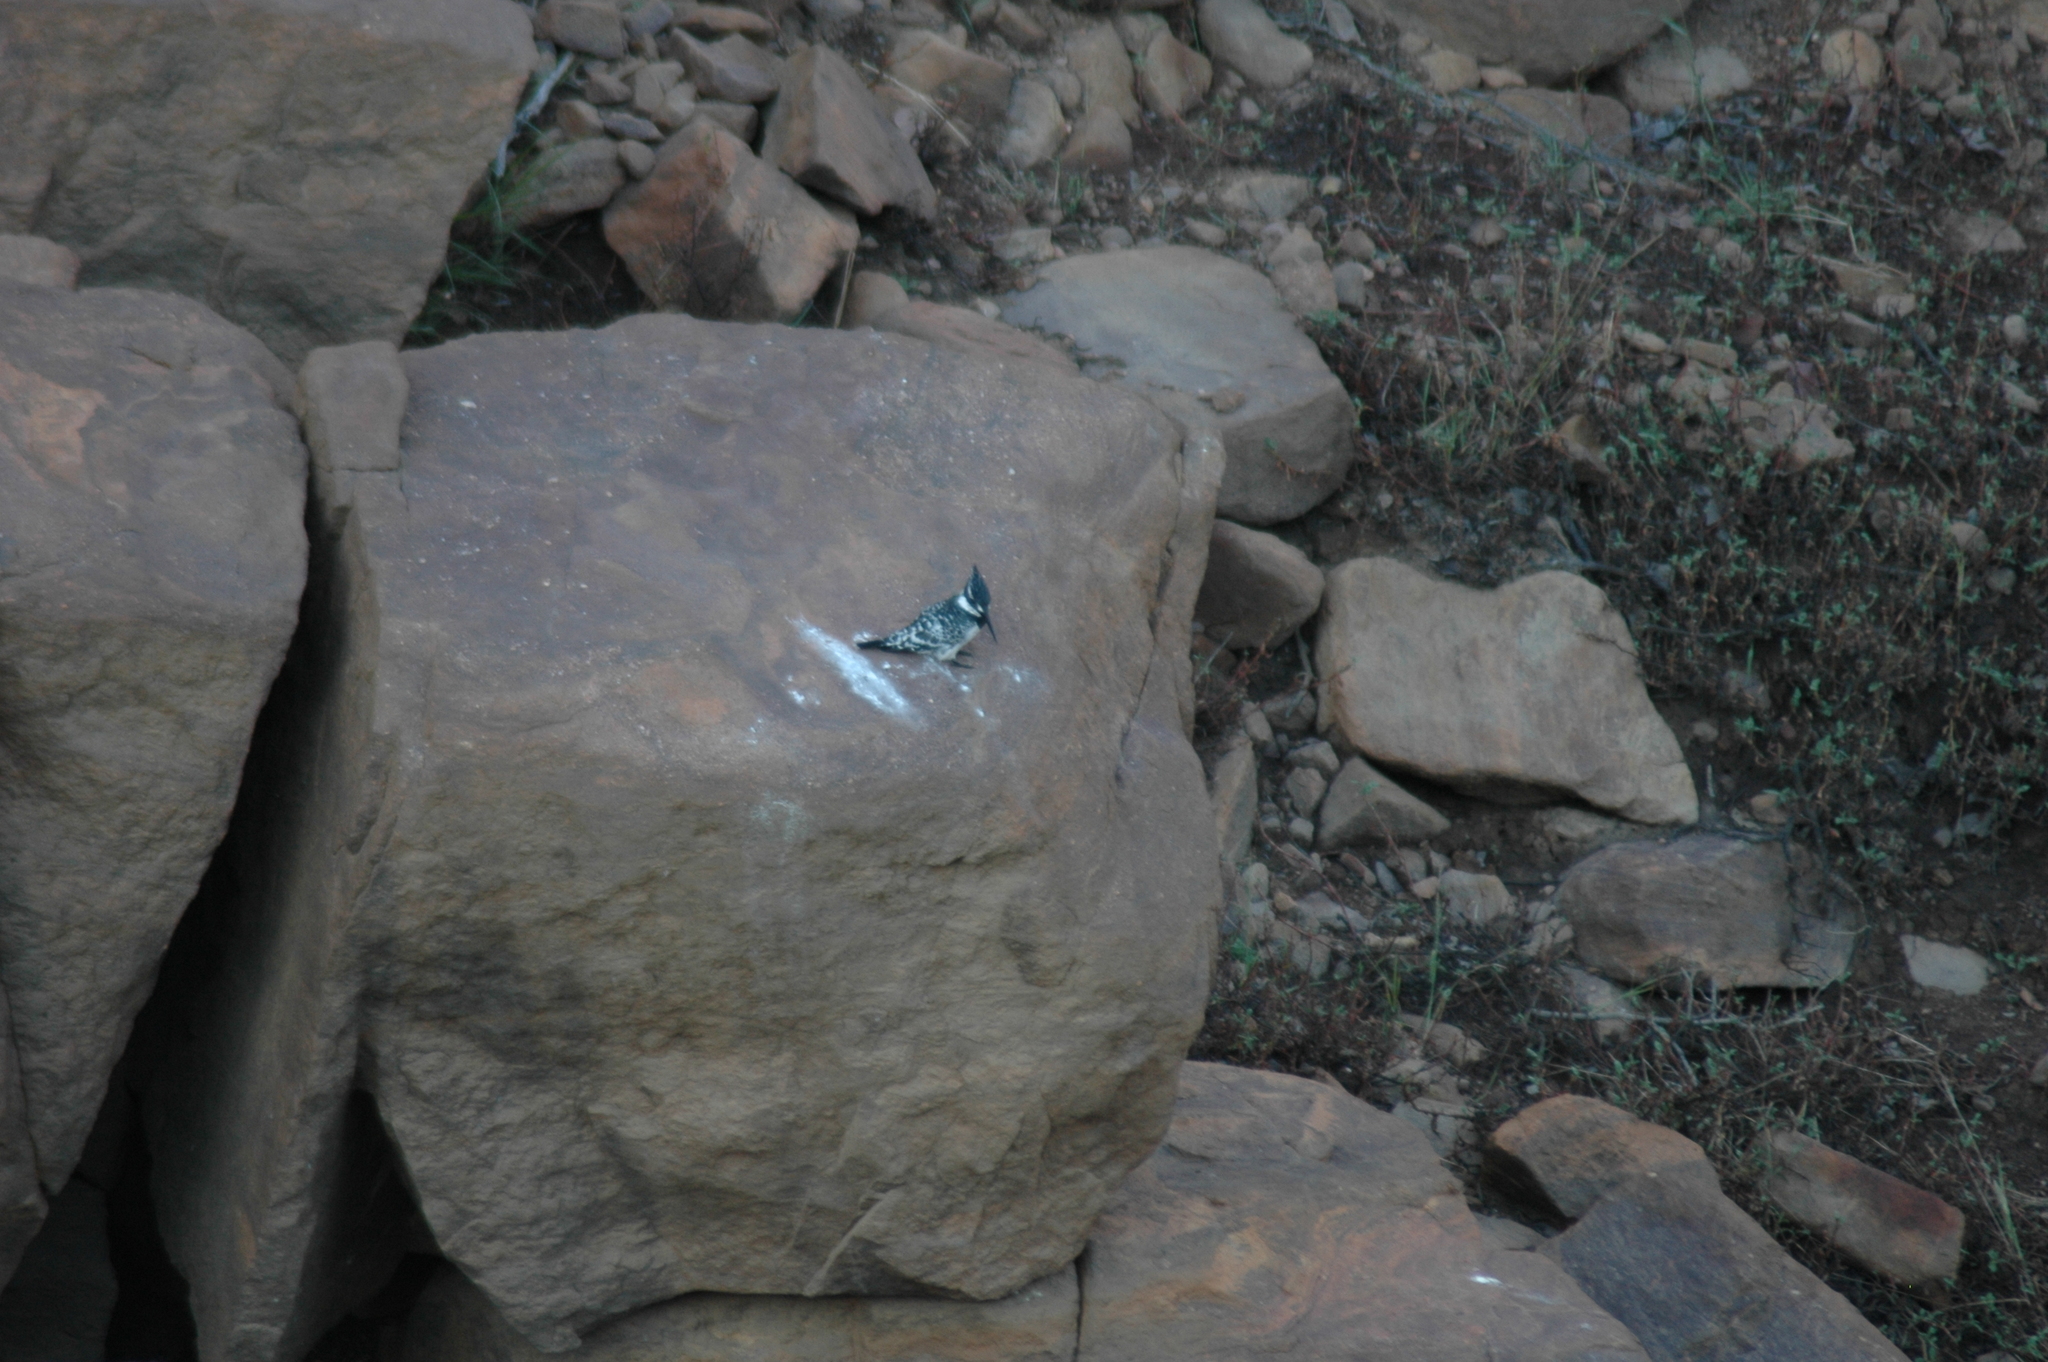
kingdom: Animalia
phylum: Chordata
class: Aves
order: Coraciiformes
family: Alcedinidae
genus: Ceryle
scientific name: Ceryle rudis
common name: Pied kingfisher
